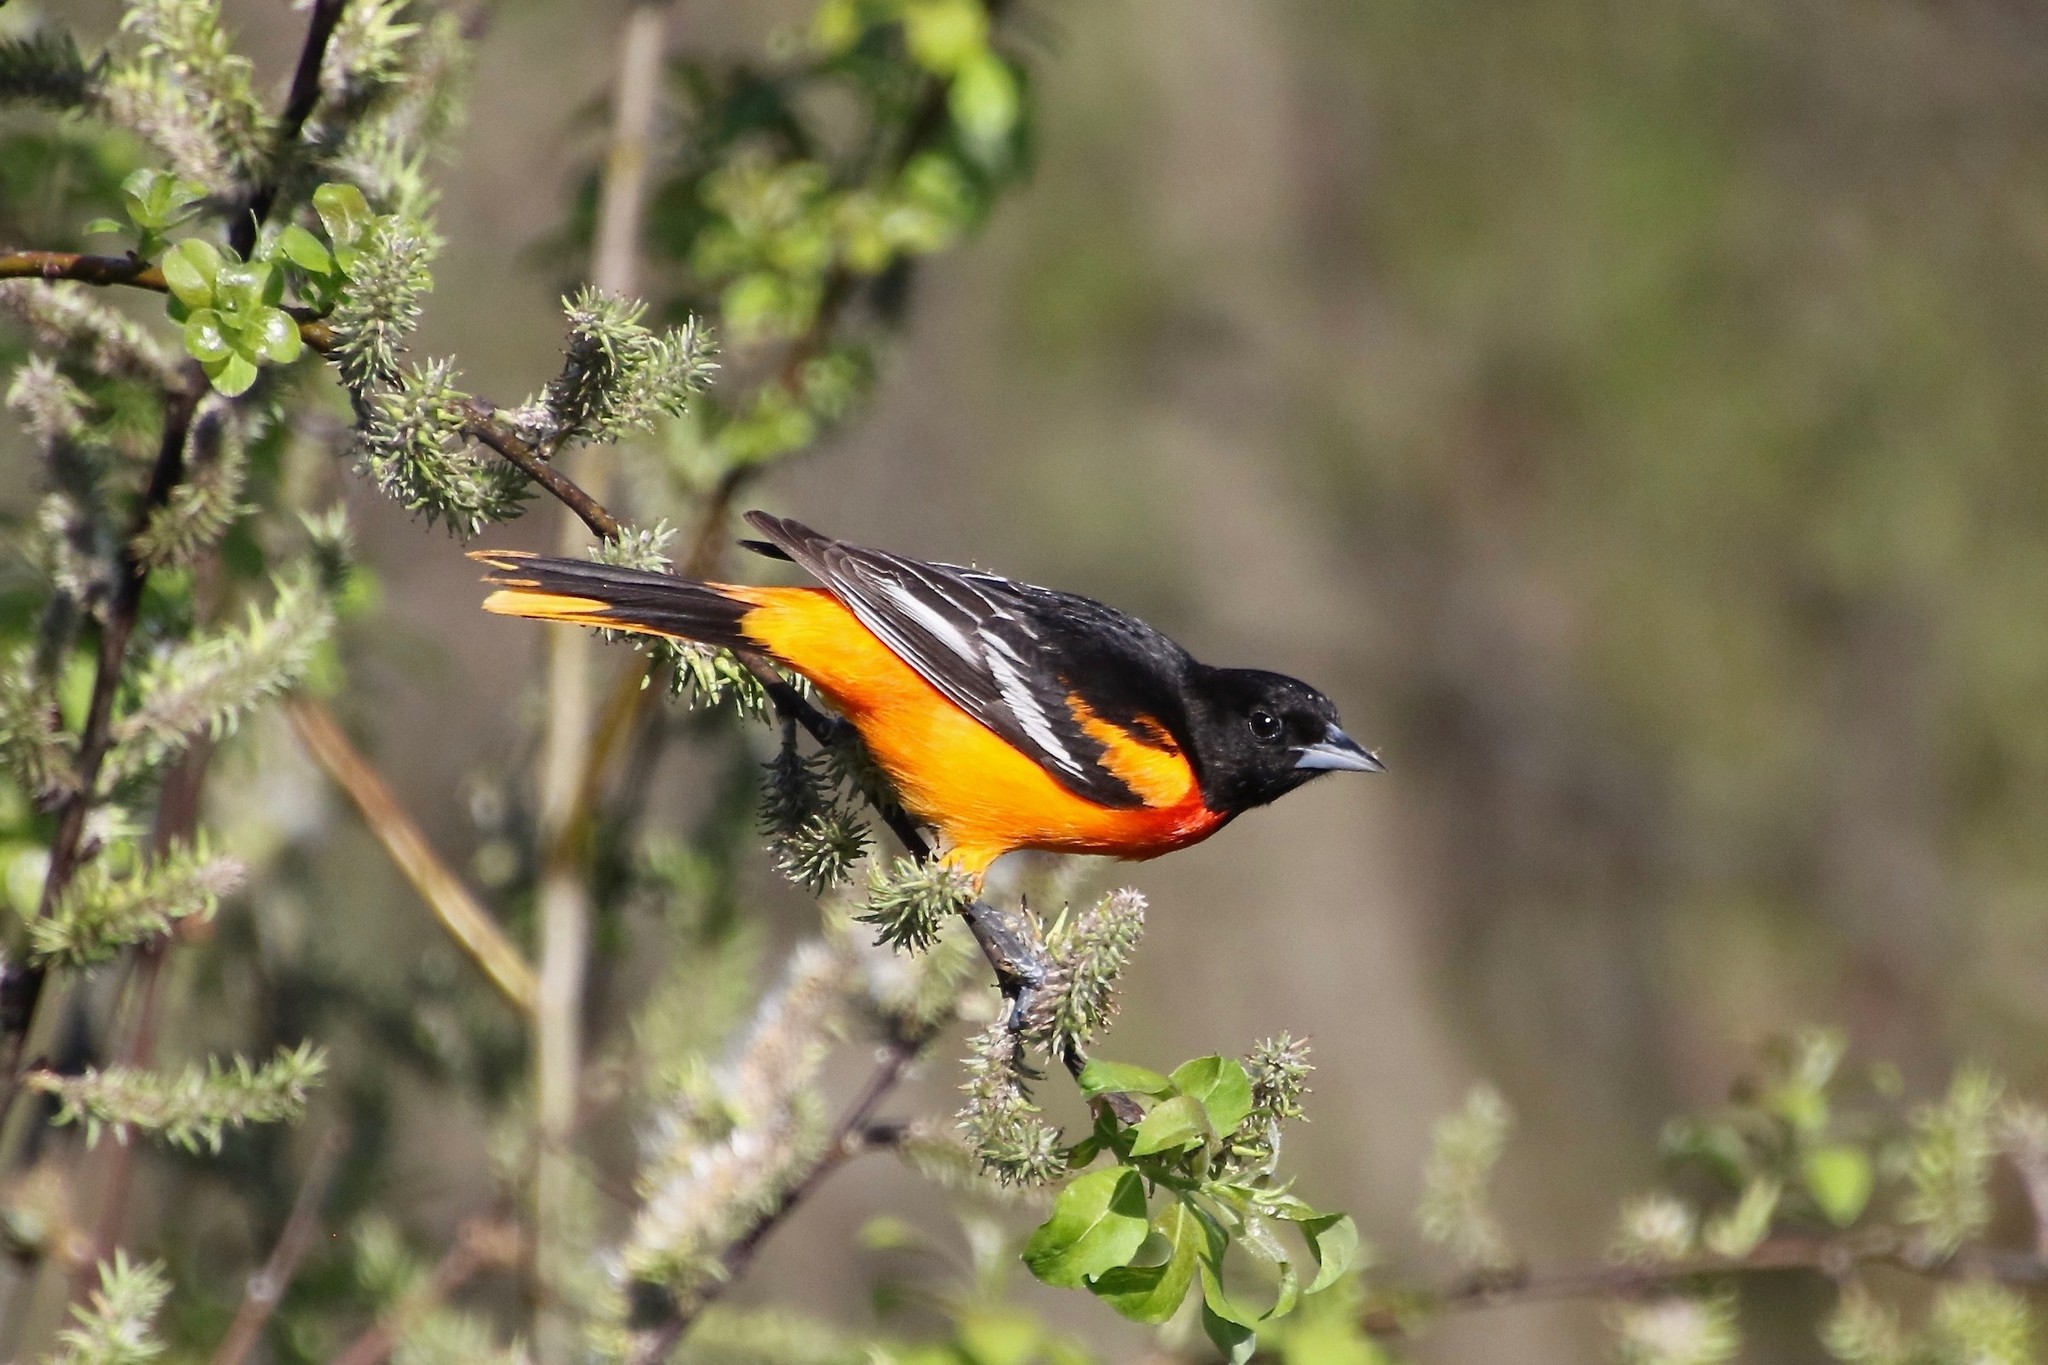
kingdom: Animalia
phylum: Chordata
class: Aves
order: Passeriformes
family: Icteridae
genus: Icterus
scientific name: Icterus galbula
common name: Baltimore oriole
